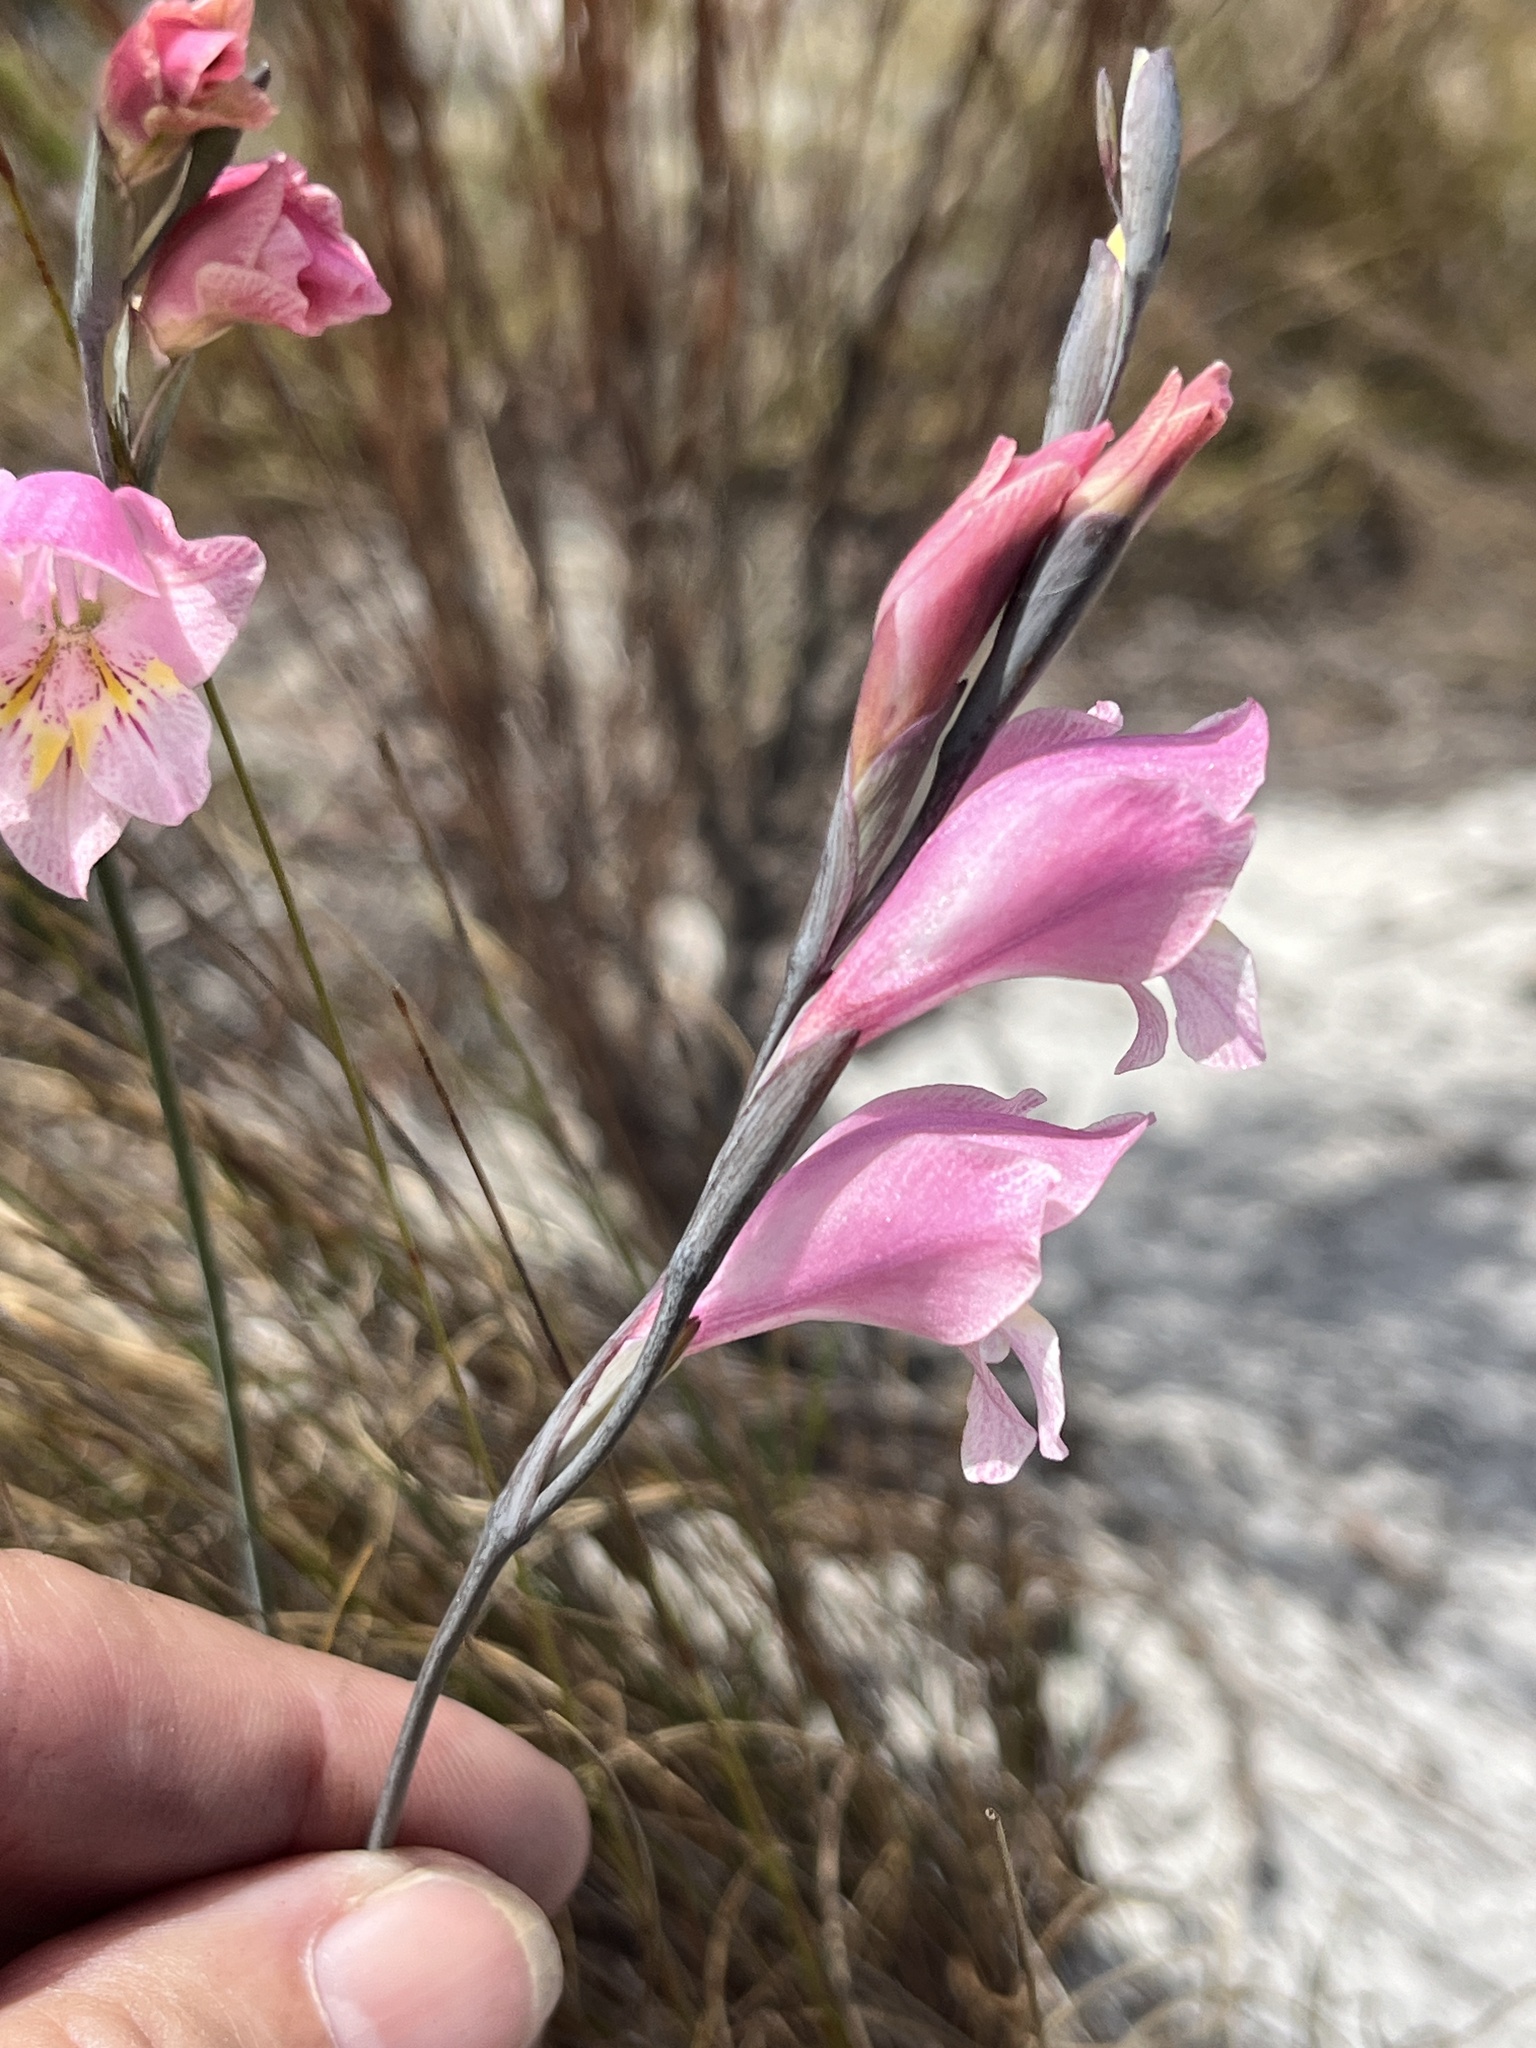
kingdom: Plantae
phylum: Tracheophyta
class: Liliopsida
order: Asparagales
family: Iridaceae
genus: Gladiolus
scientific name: Gladiolus brevifolius
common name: March pypie
